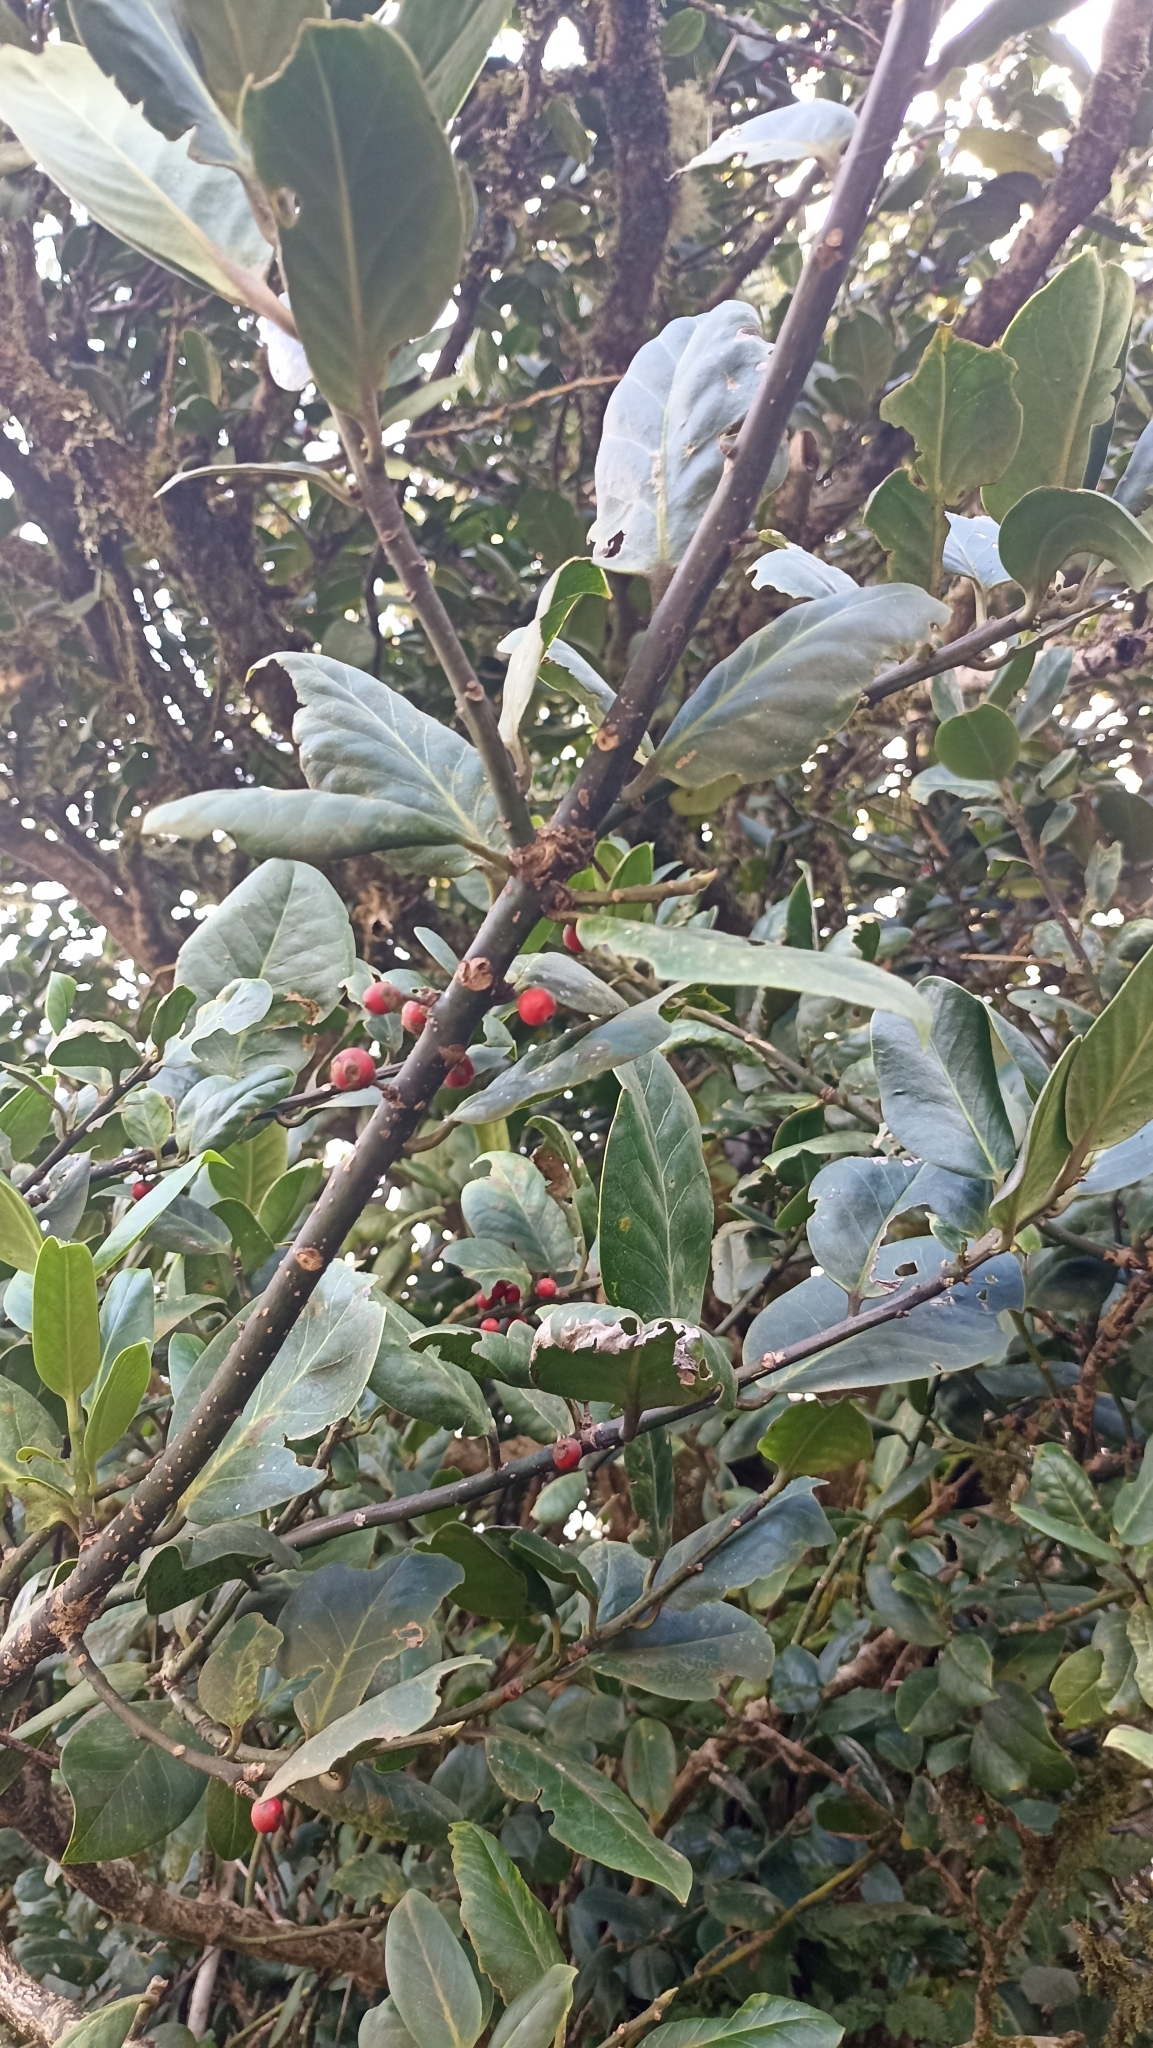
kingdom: Plantae
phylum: Tracheophyta
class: Magnoliopsida
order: Ericales
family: Primulaceae
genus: Pleiomeris
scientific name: Pleiomeris canariensis
